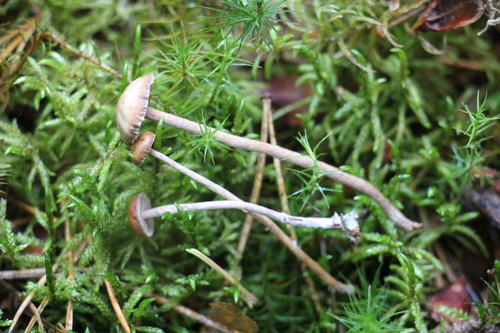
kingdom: Fungi
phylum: Basidiomycota
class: Agaricomycetes
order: Agaricales
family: Strophariaceae
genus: Deconica
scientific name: Deconica crobula
